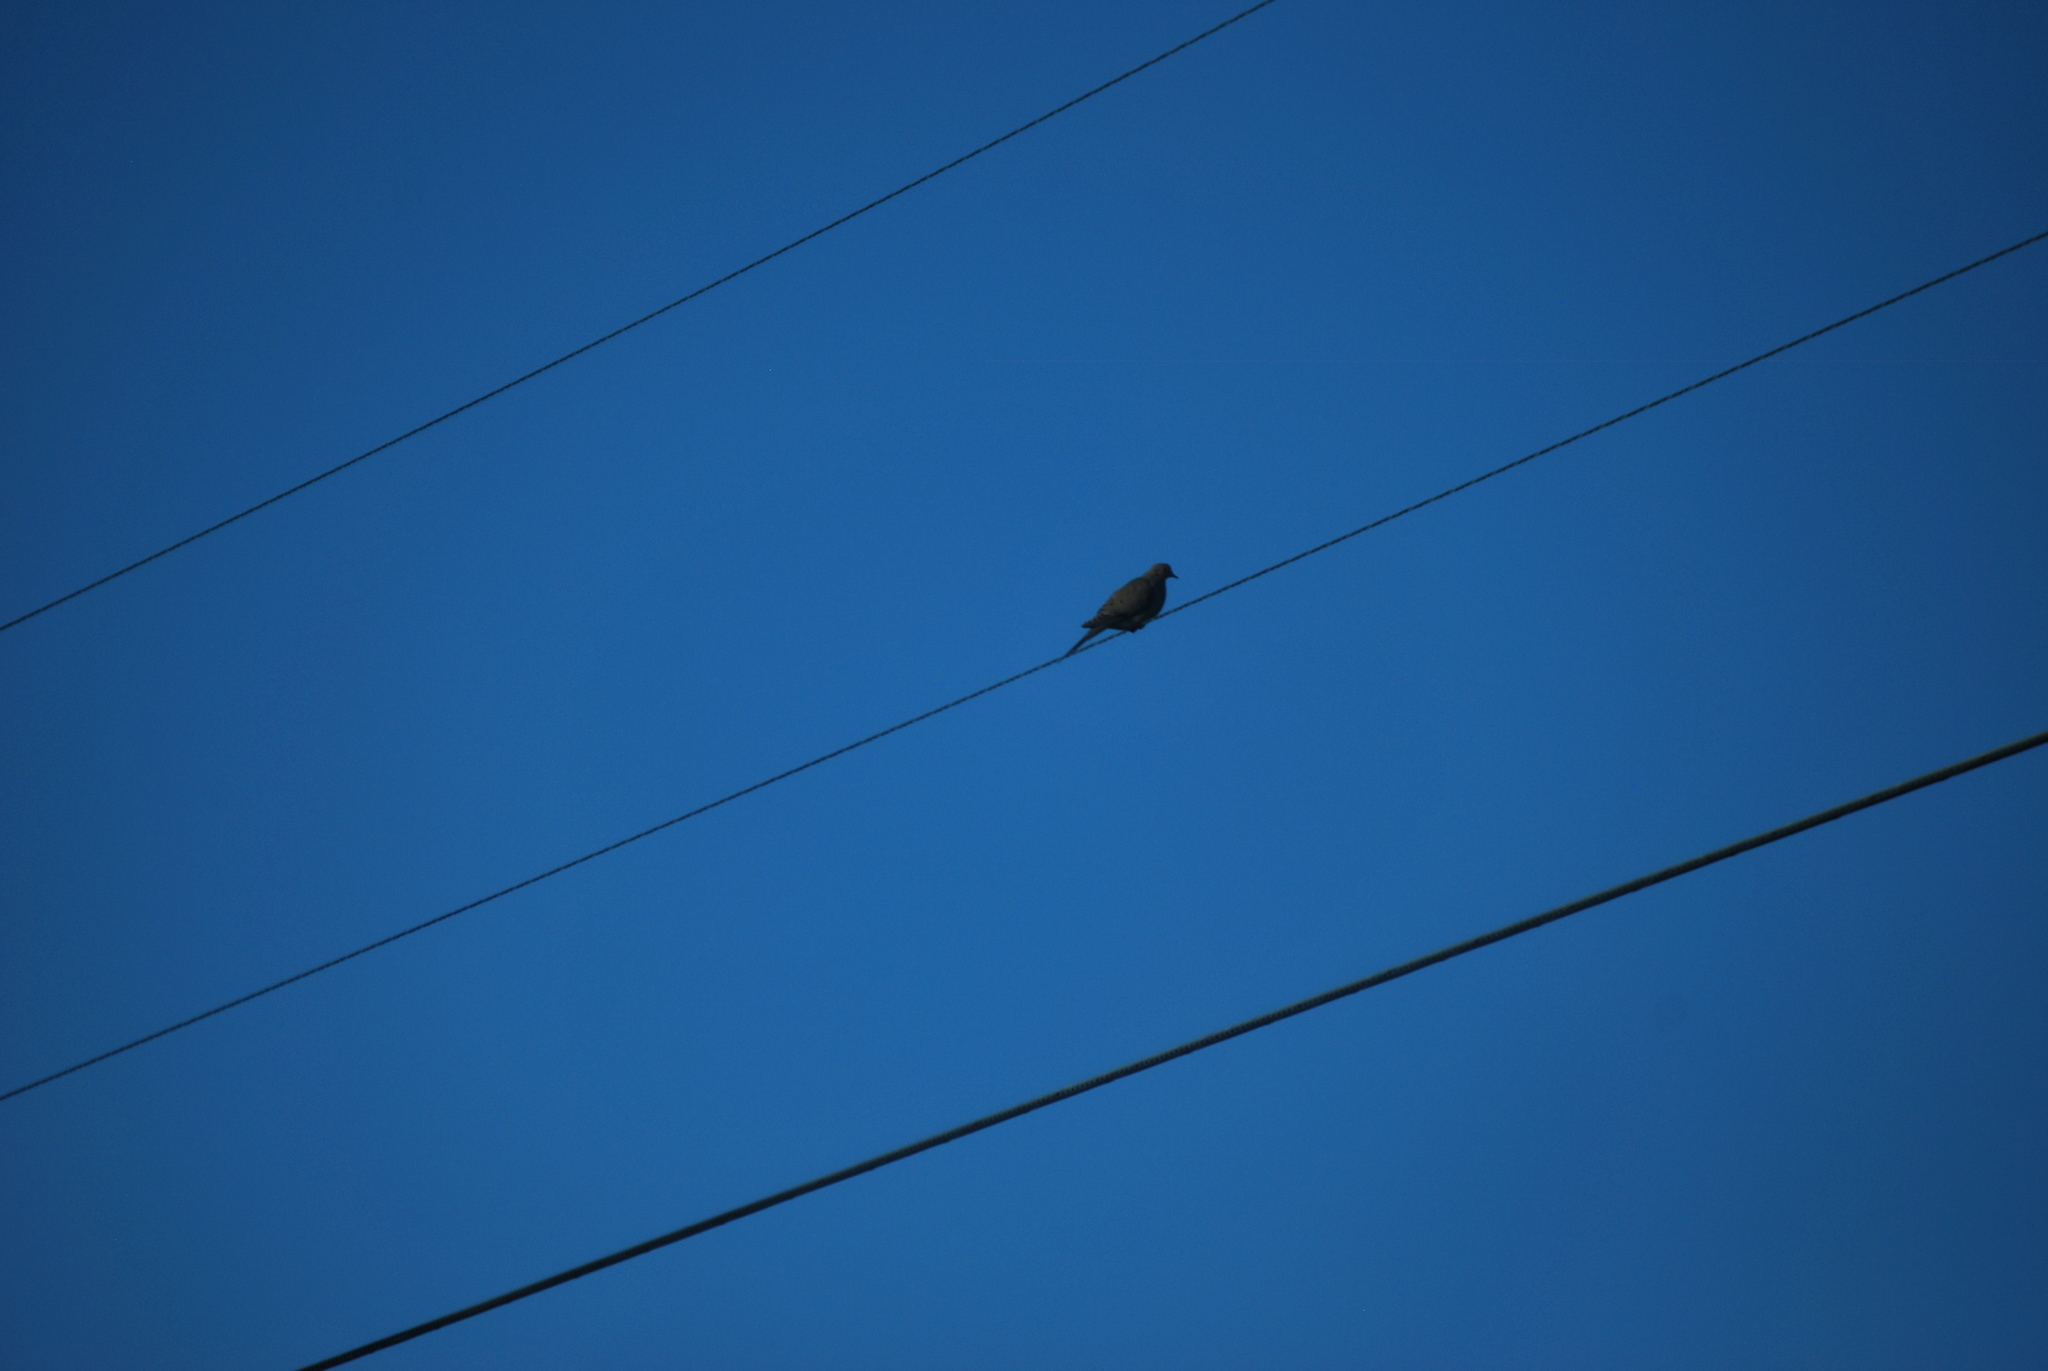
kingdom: Animalia
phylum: Chordata
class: Aves
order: Columbiformes
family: Columbidae
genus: Zenaida
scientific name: Zenaida macroura
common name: Mourning dove
